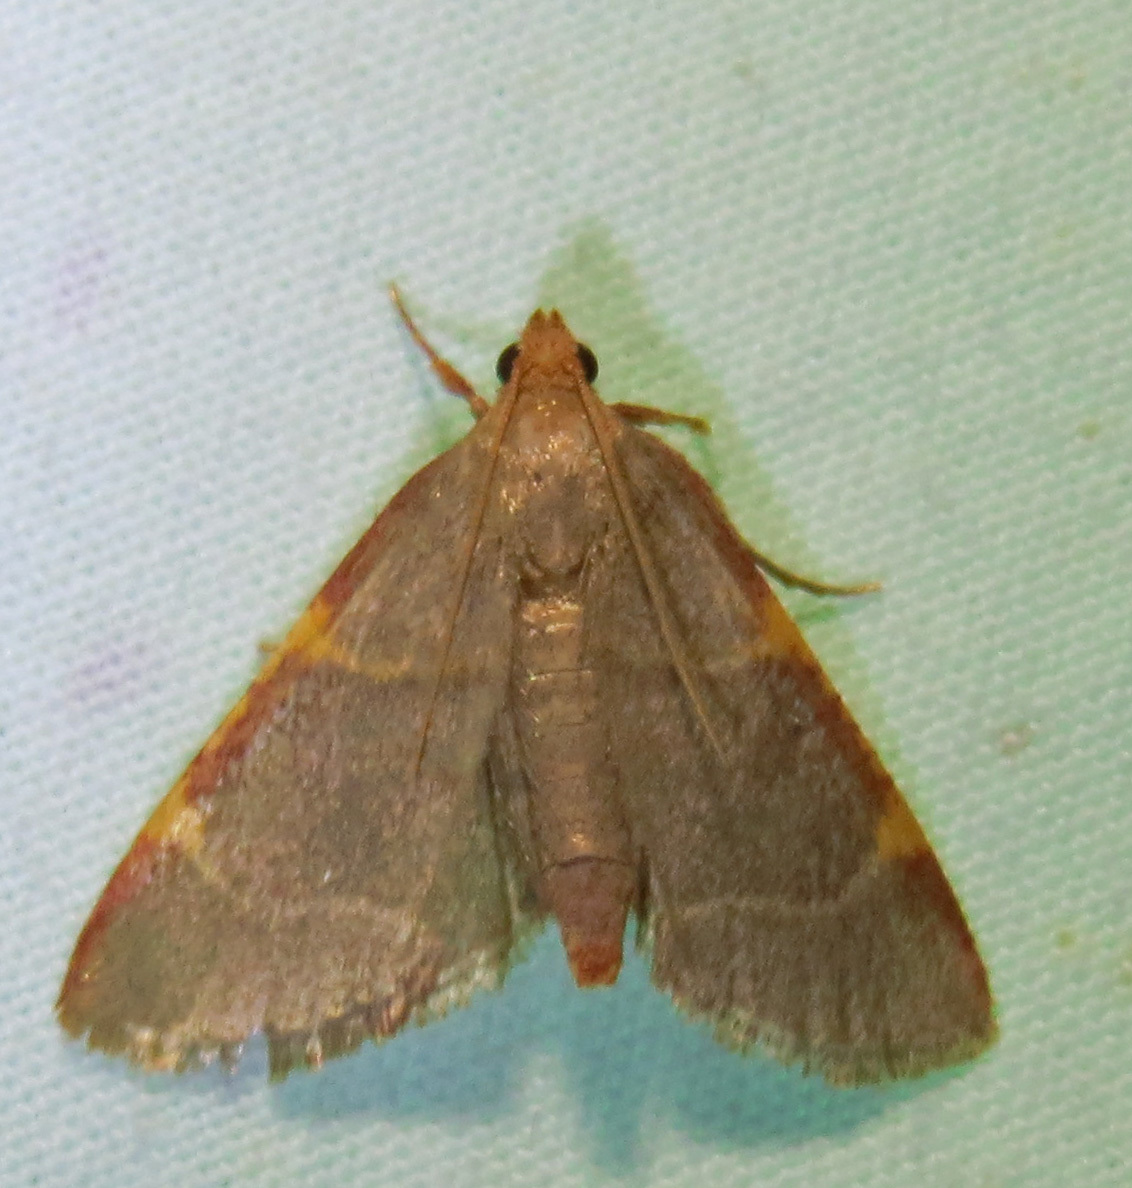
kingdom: Animalia
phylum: Arthropoda
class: Insecta
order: Lepidoptera
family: Pyralidae
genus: Hypsopygia
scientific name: Hypsopygia binodulalis
